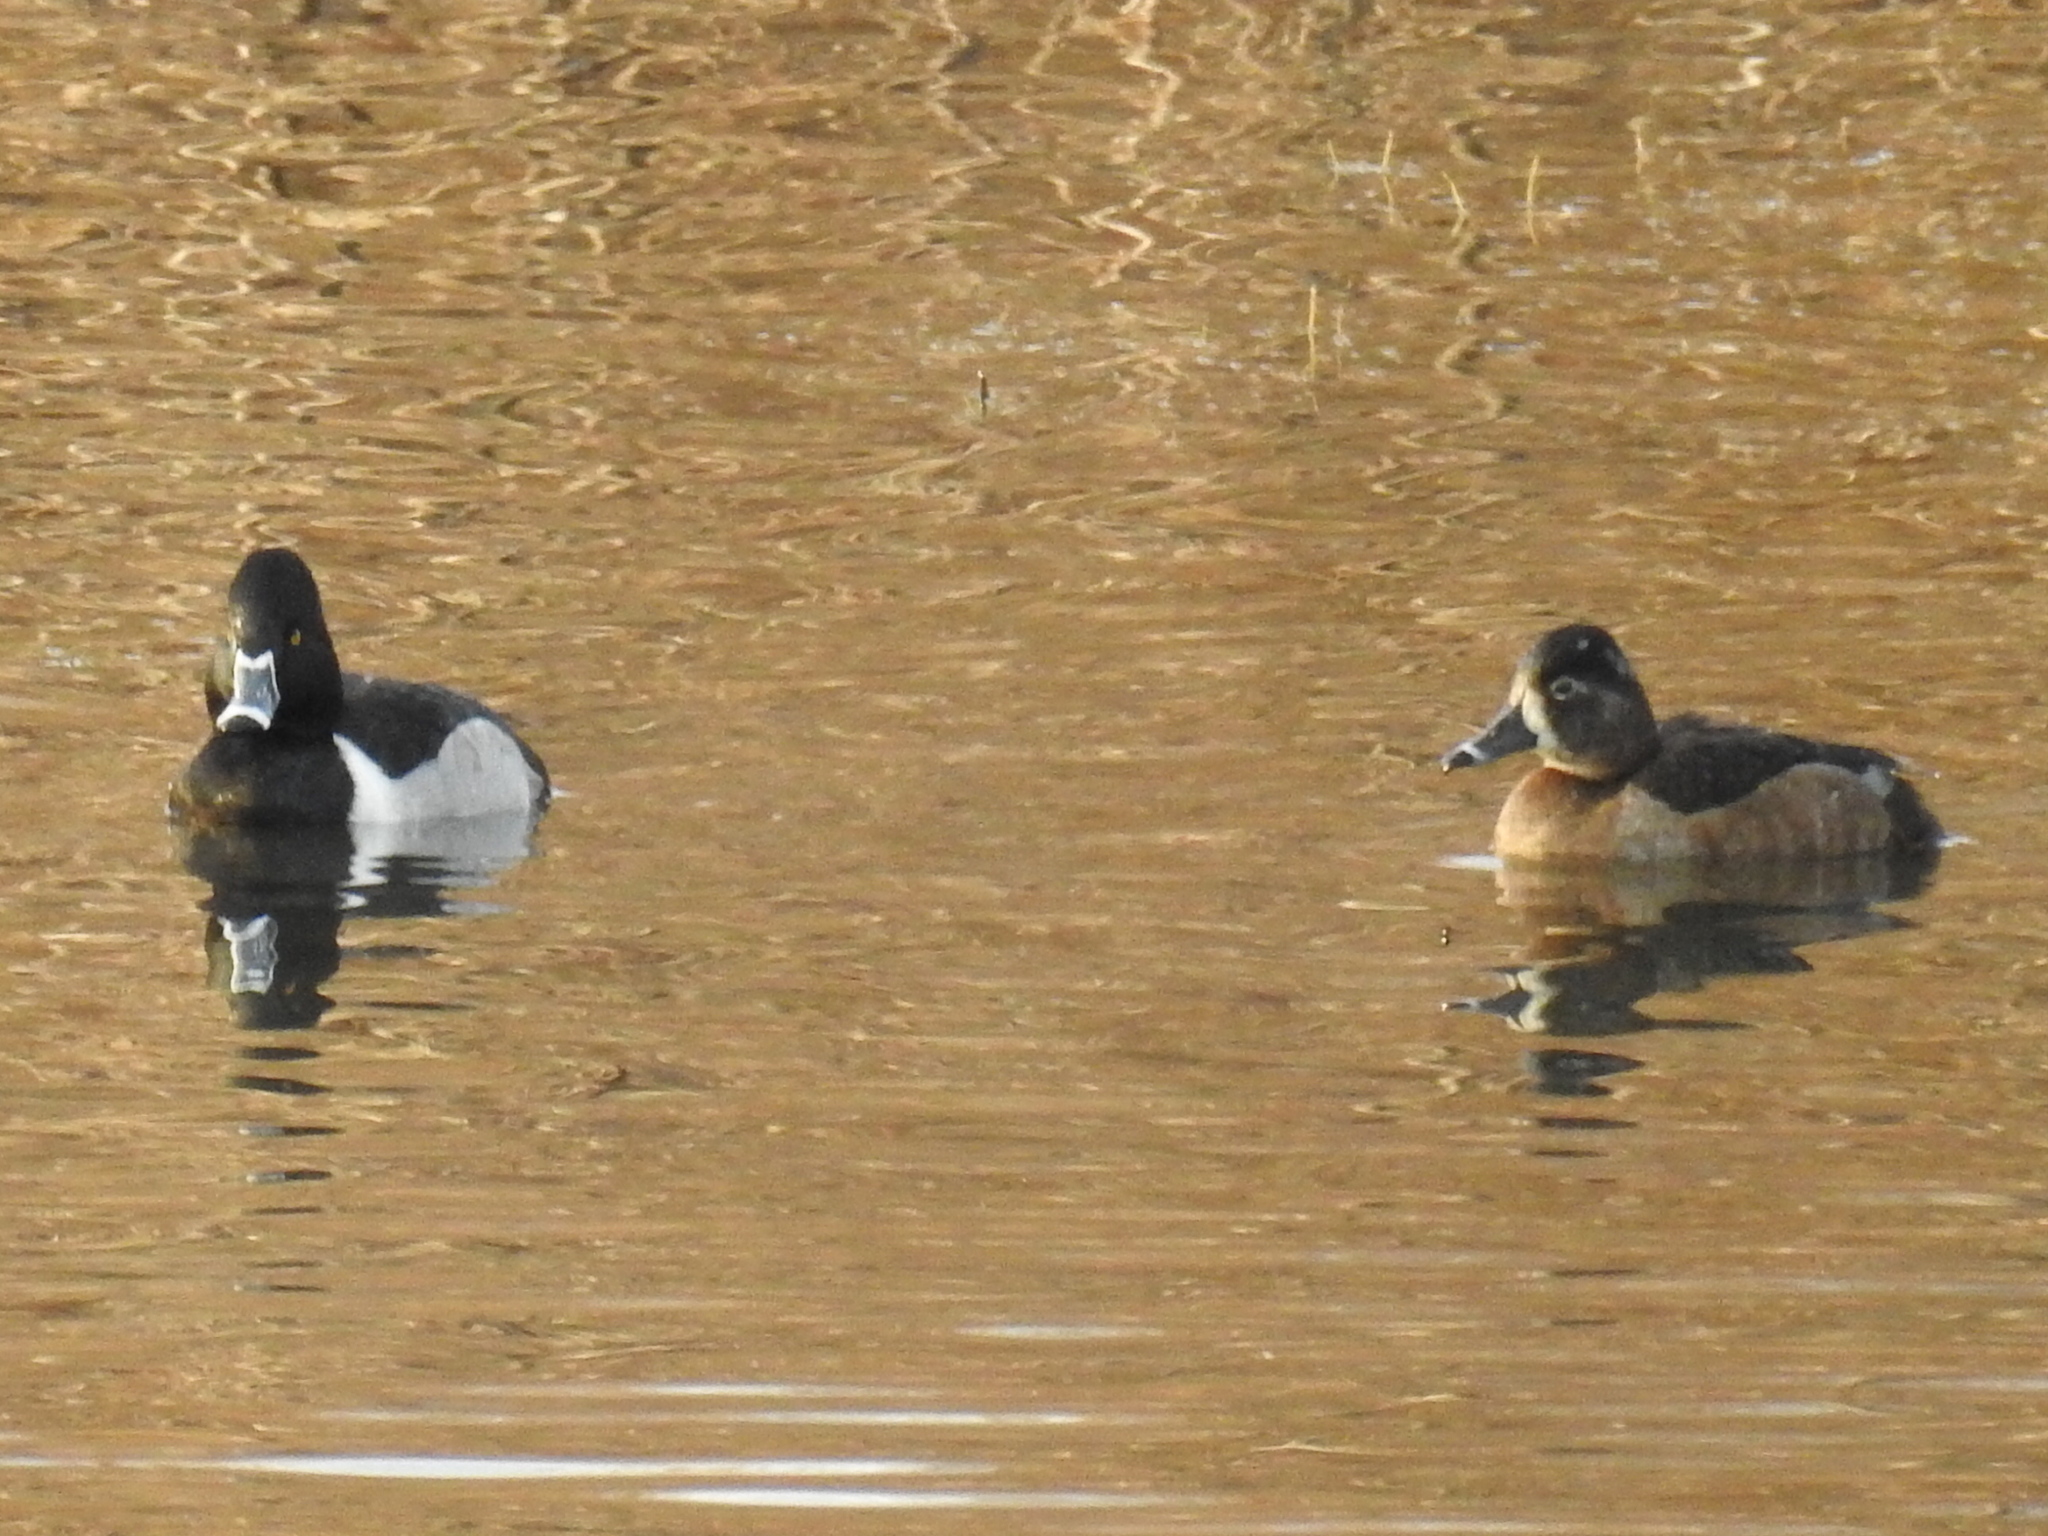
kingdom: Animalia
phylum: Chordata
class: Aves
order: Anseriformes
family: Anatidae
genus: Aythya
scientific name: Aythya collaris
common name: Ring-necked duck
